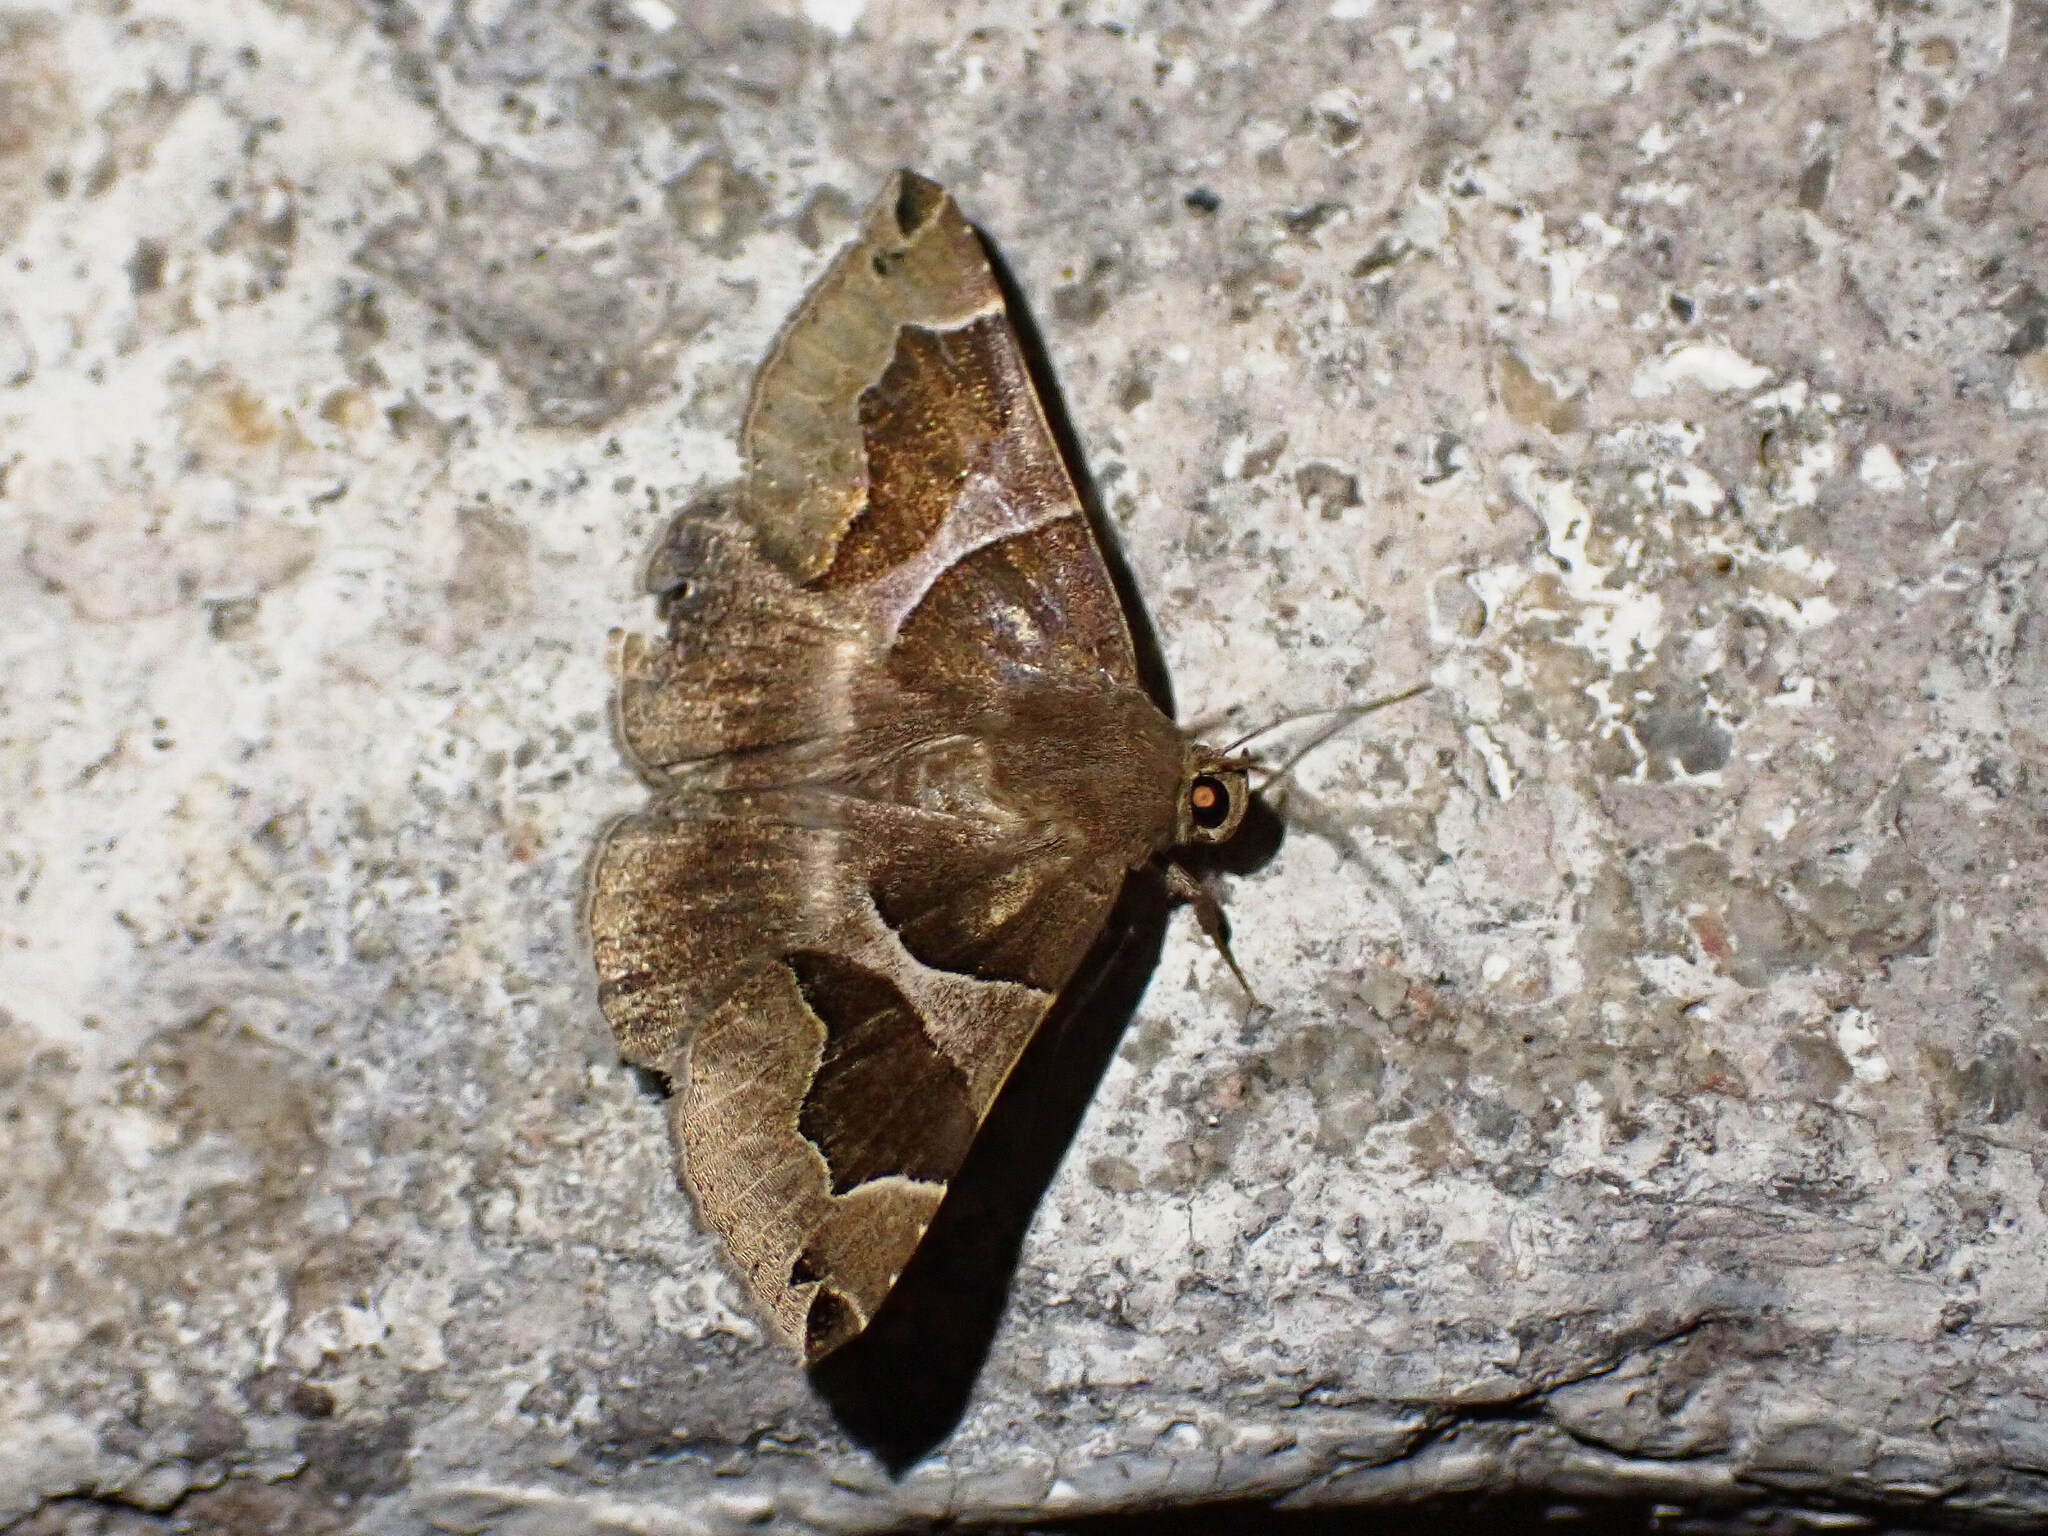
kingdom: Animalia
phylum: Arthropoda
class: Insecta
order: Lepidoptera
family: Erebidae
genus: Dysgonia
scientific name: Dysgonia algira
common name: Passenger
